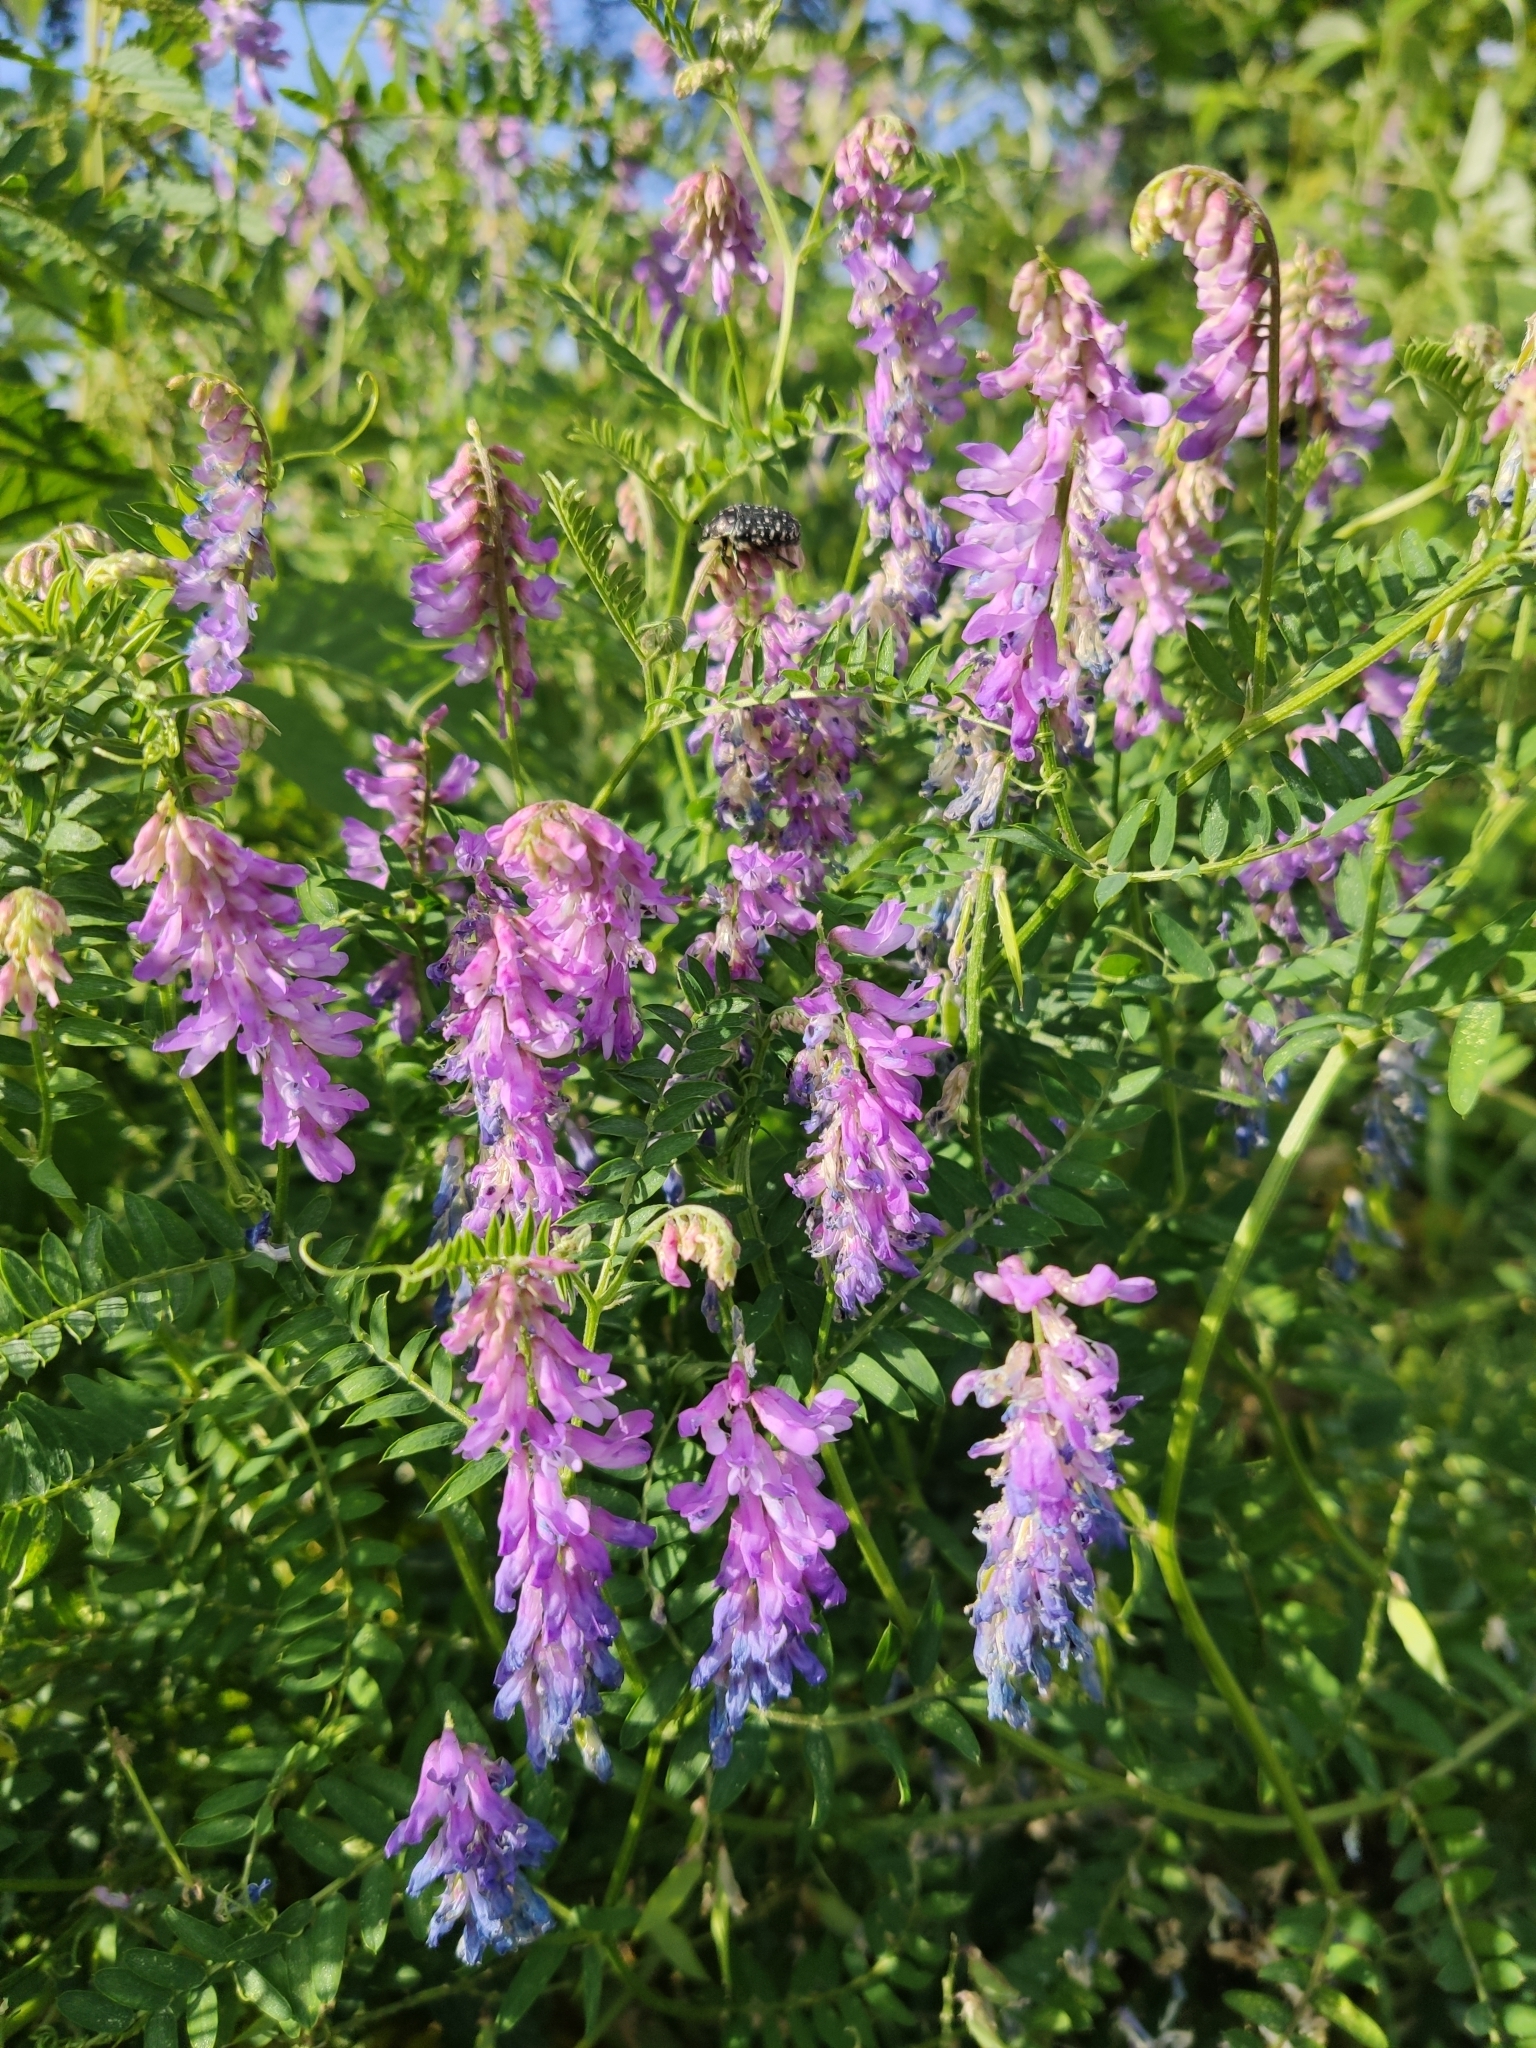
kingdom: Plantae
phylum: Tracheophyta
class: Magnoliopsida
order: Fabales
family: Fabaceae
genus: Vicia
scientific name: Vicia cracca
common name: Bird vetch
